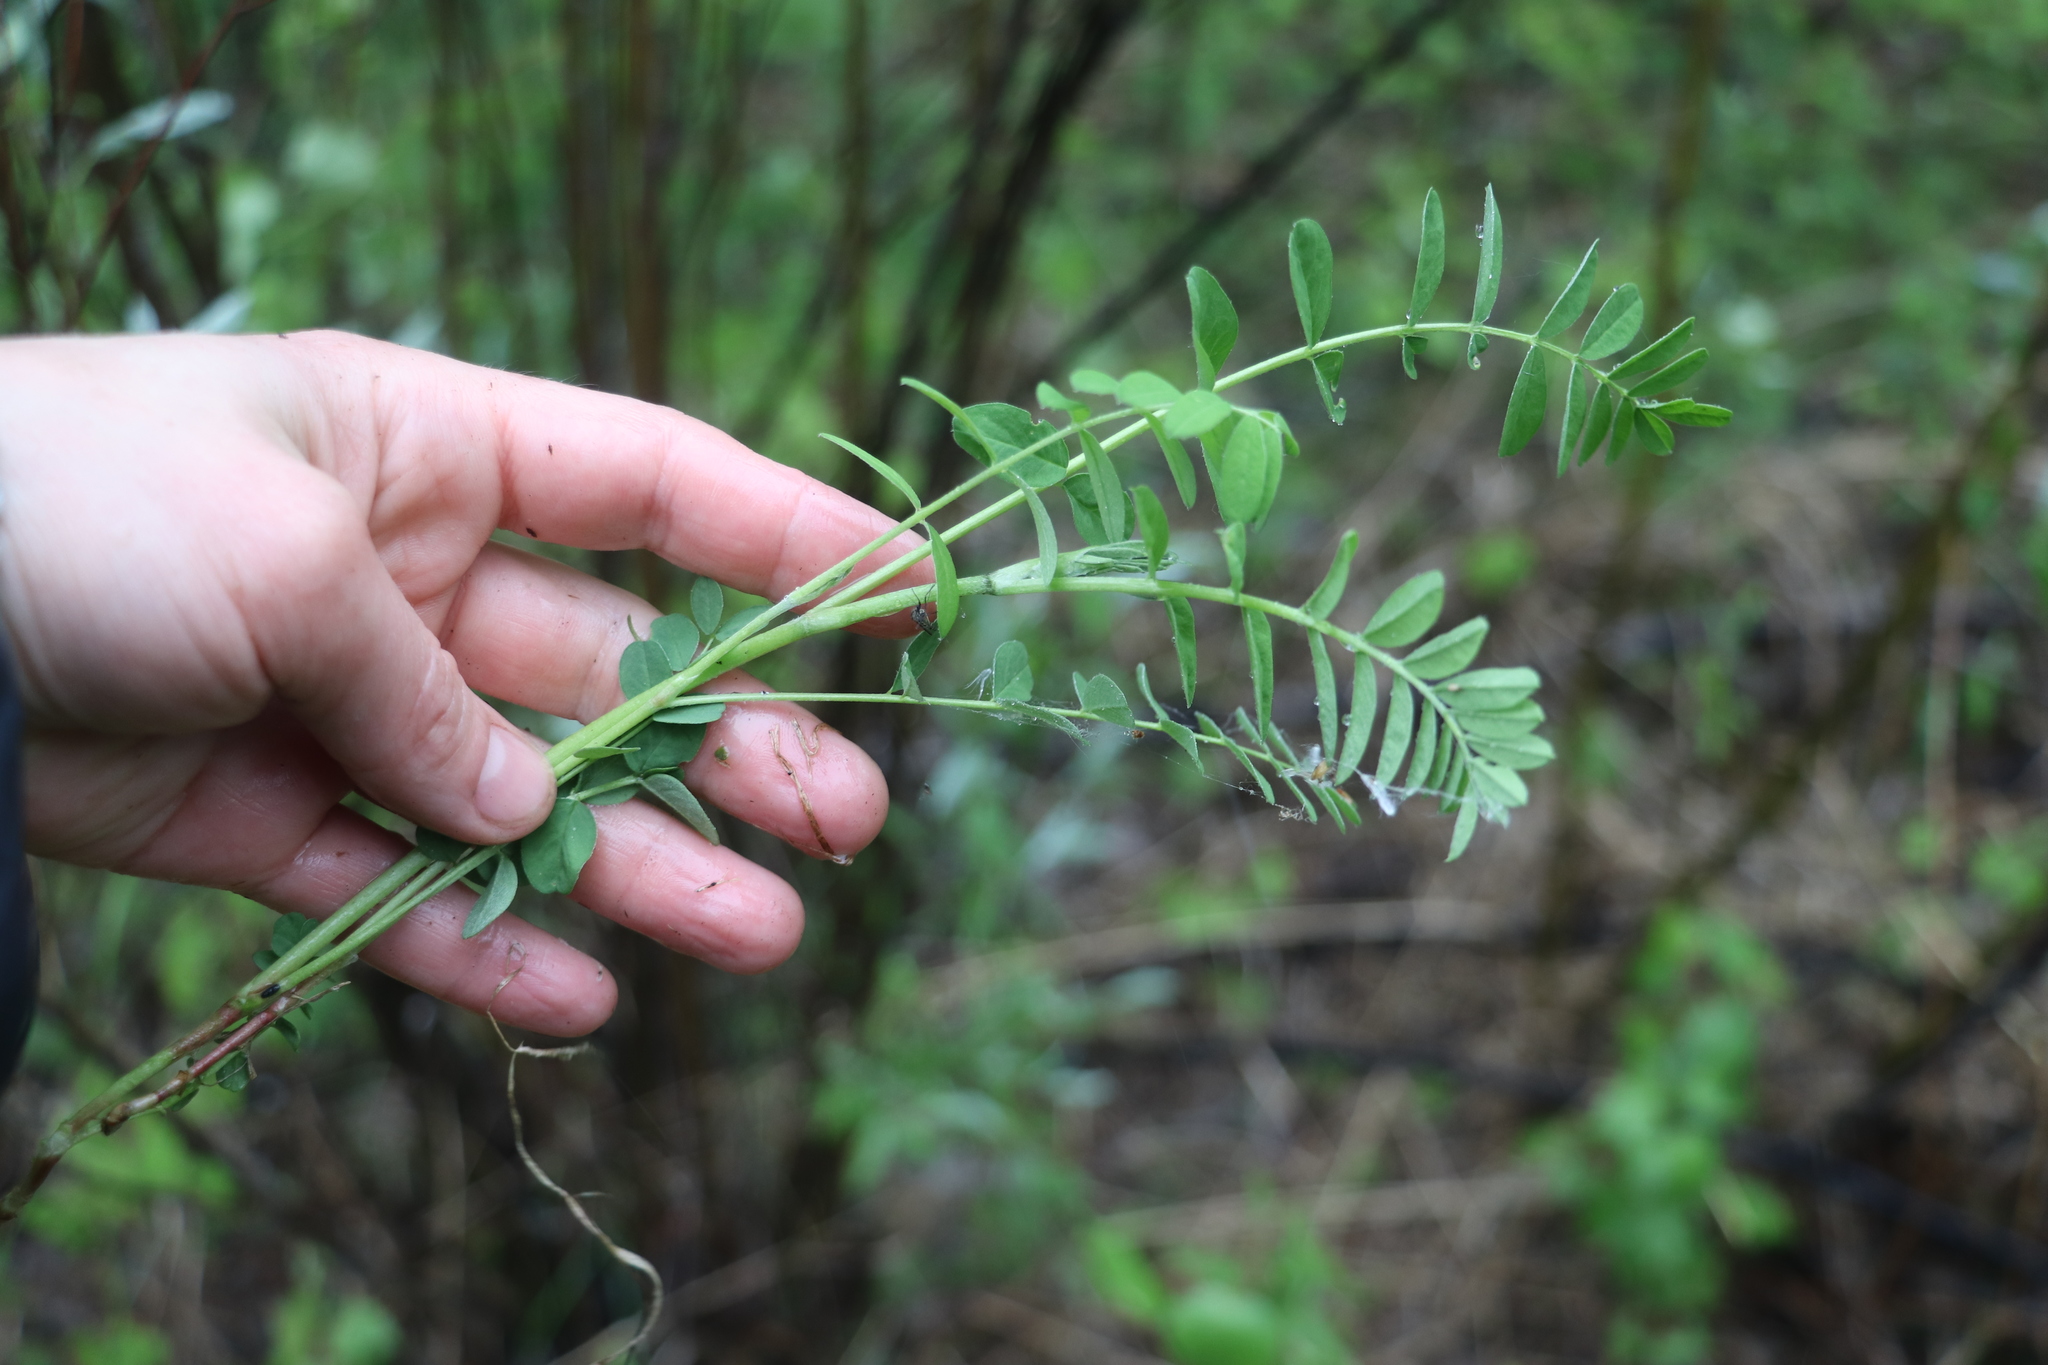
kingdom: Plantae
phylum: Tracheophyta
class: Magnoliopsida
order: Fabales
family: Fabaceae
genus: Astragalus
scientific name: Astragalus uliginosus
